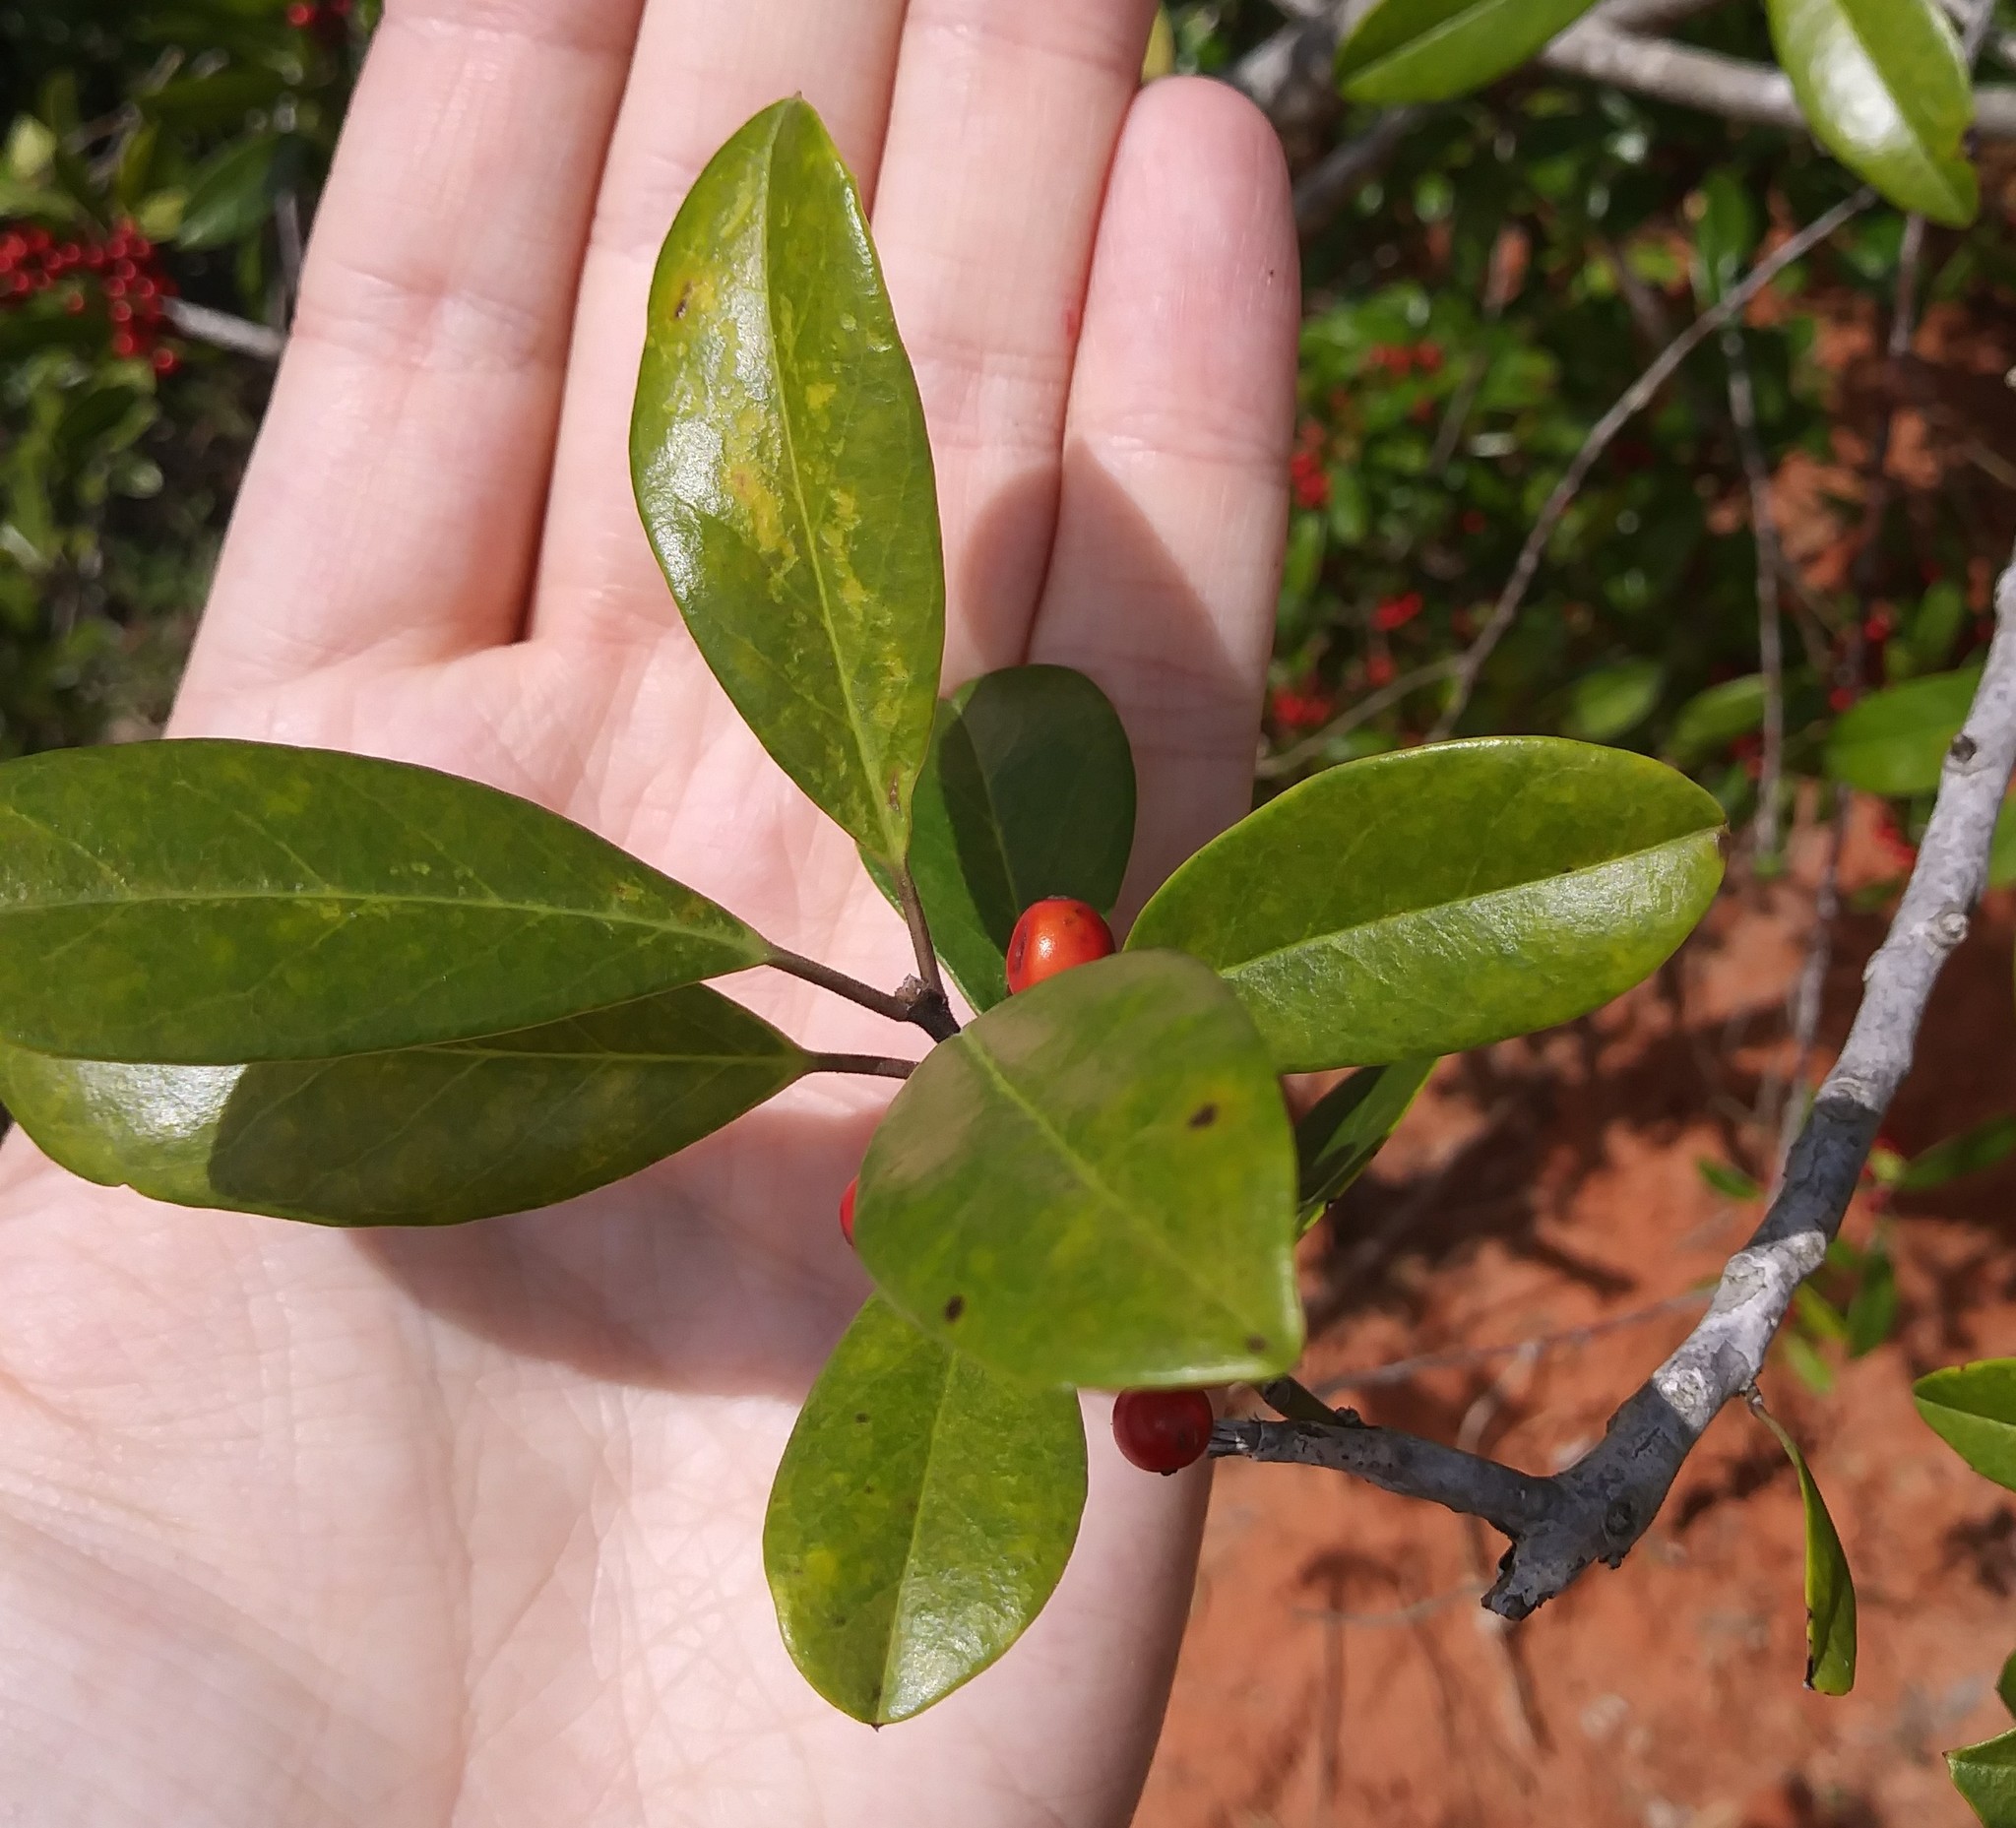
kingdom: Plantae
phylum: Tracheophyta
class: Magnoliopsida
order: Aquifoliales
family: Aquifoliaceae
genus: Ilex
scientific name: Ilex cassine
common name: Dahoon
